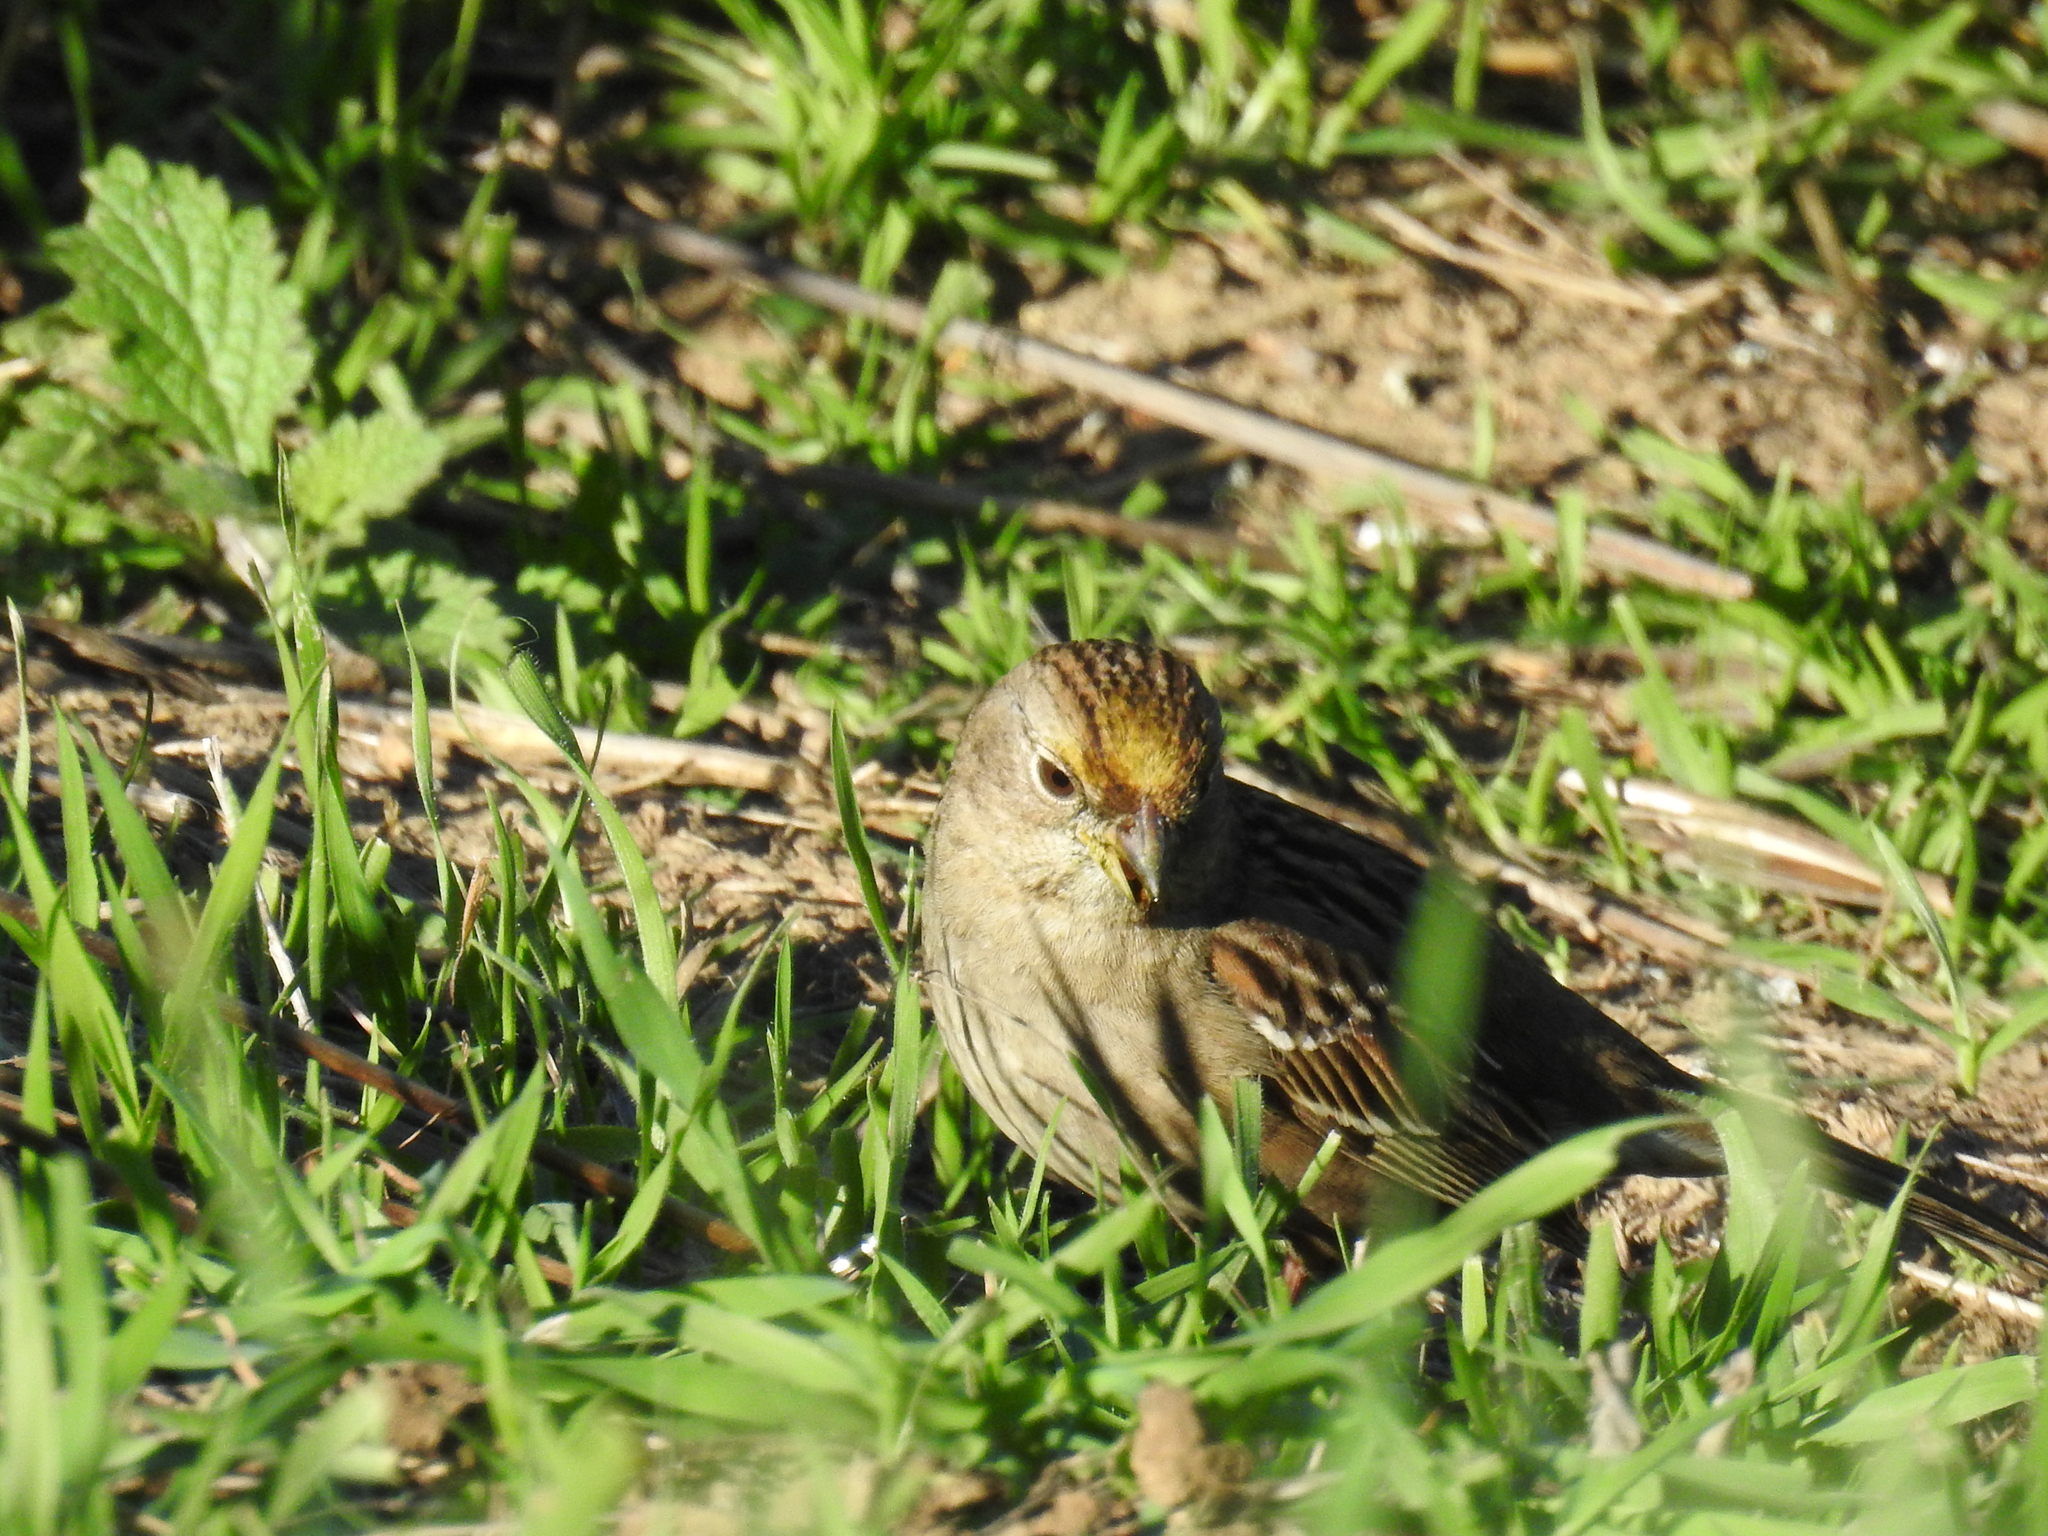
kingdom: Animalia
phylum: Chordata
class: Aves
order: Passeriformes
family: Passerellidae
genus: Zonotrichia
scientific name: Zonotrichia atricapilla
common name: Golden-crowned sparrow
